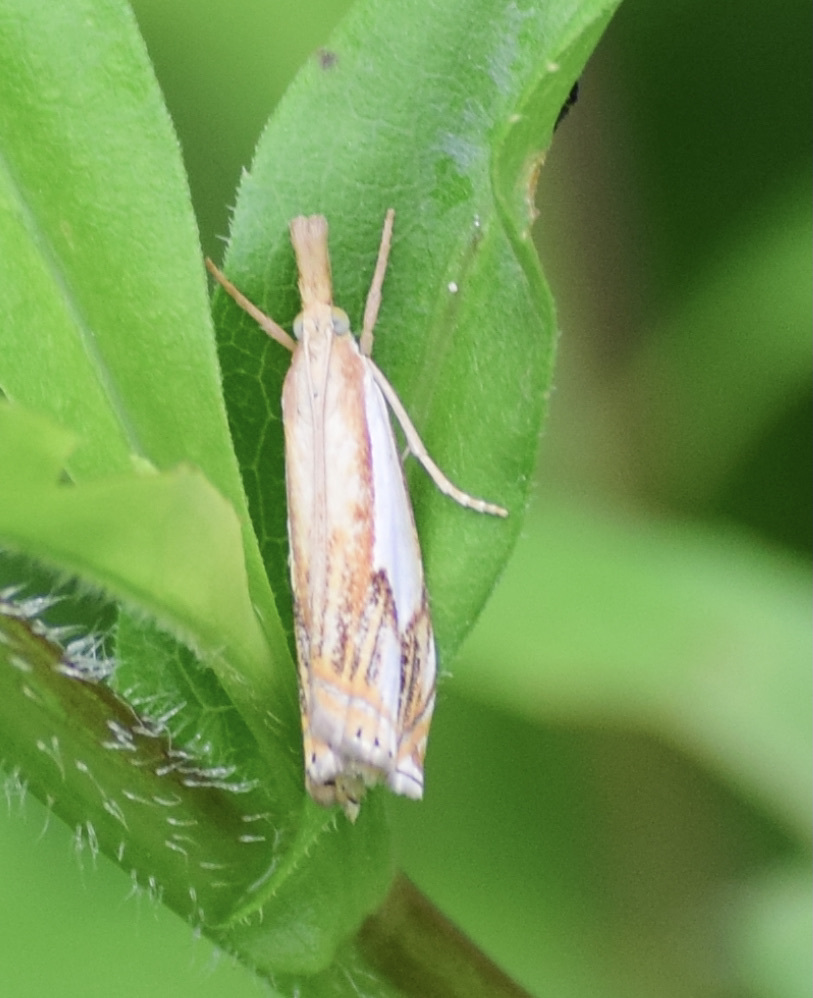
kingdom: Animalia
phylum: Arthropoda
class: Insecta
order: Lepidoptera
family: Crambidae
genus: Crambus
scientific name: Crambus agitatellus
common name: Double-banded grass-veneer
